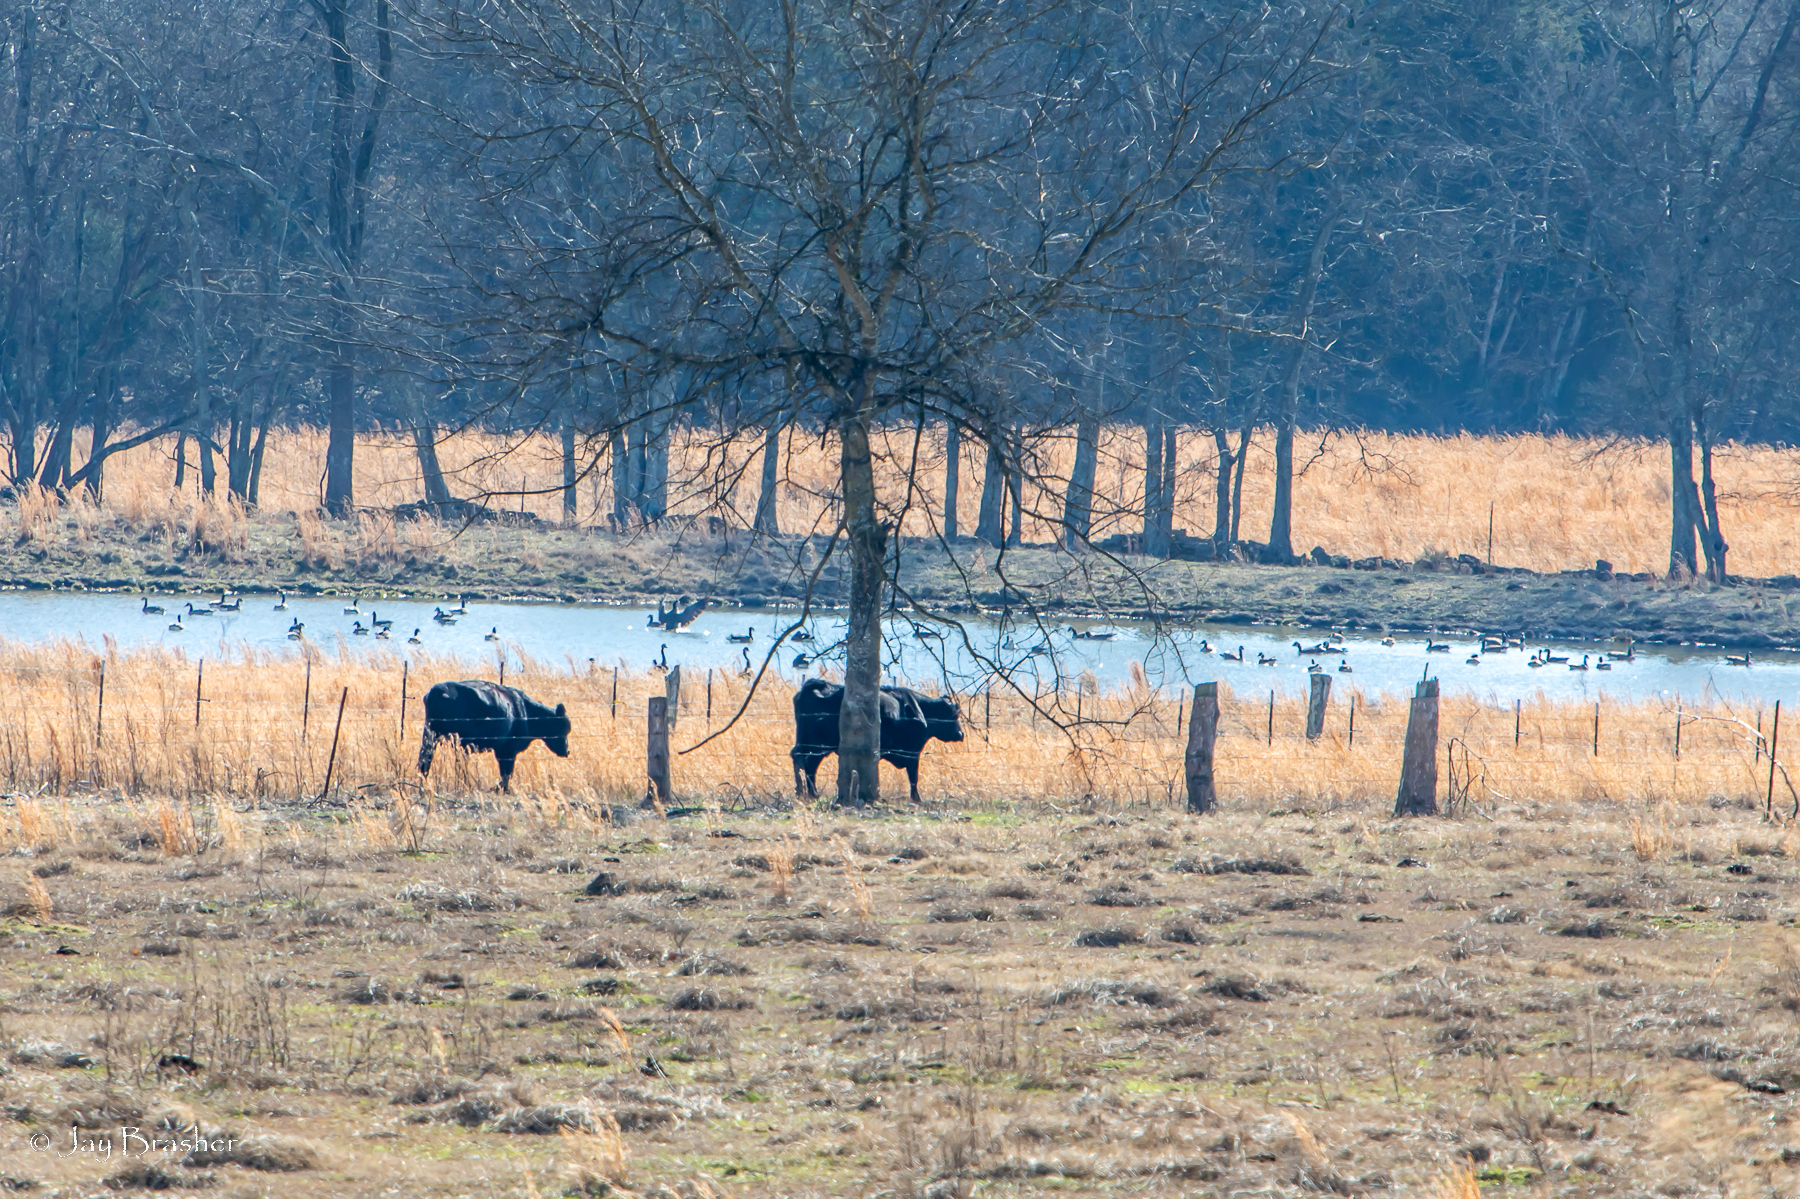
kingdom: Animalia
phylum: Chordata
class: Aves
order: Anseriformes
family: Anatidae
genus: Branta
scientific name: Branta canadensis
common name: Canada goose
